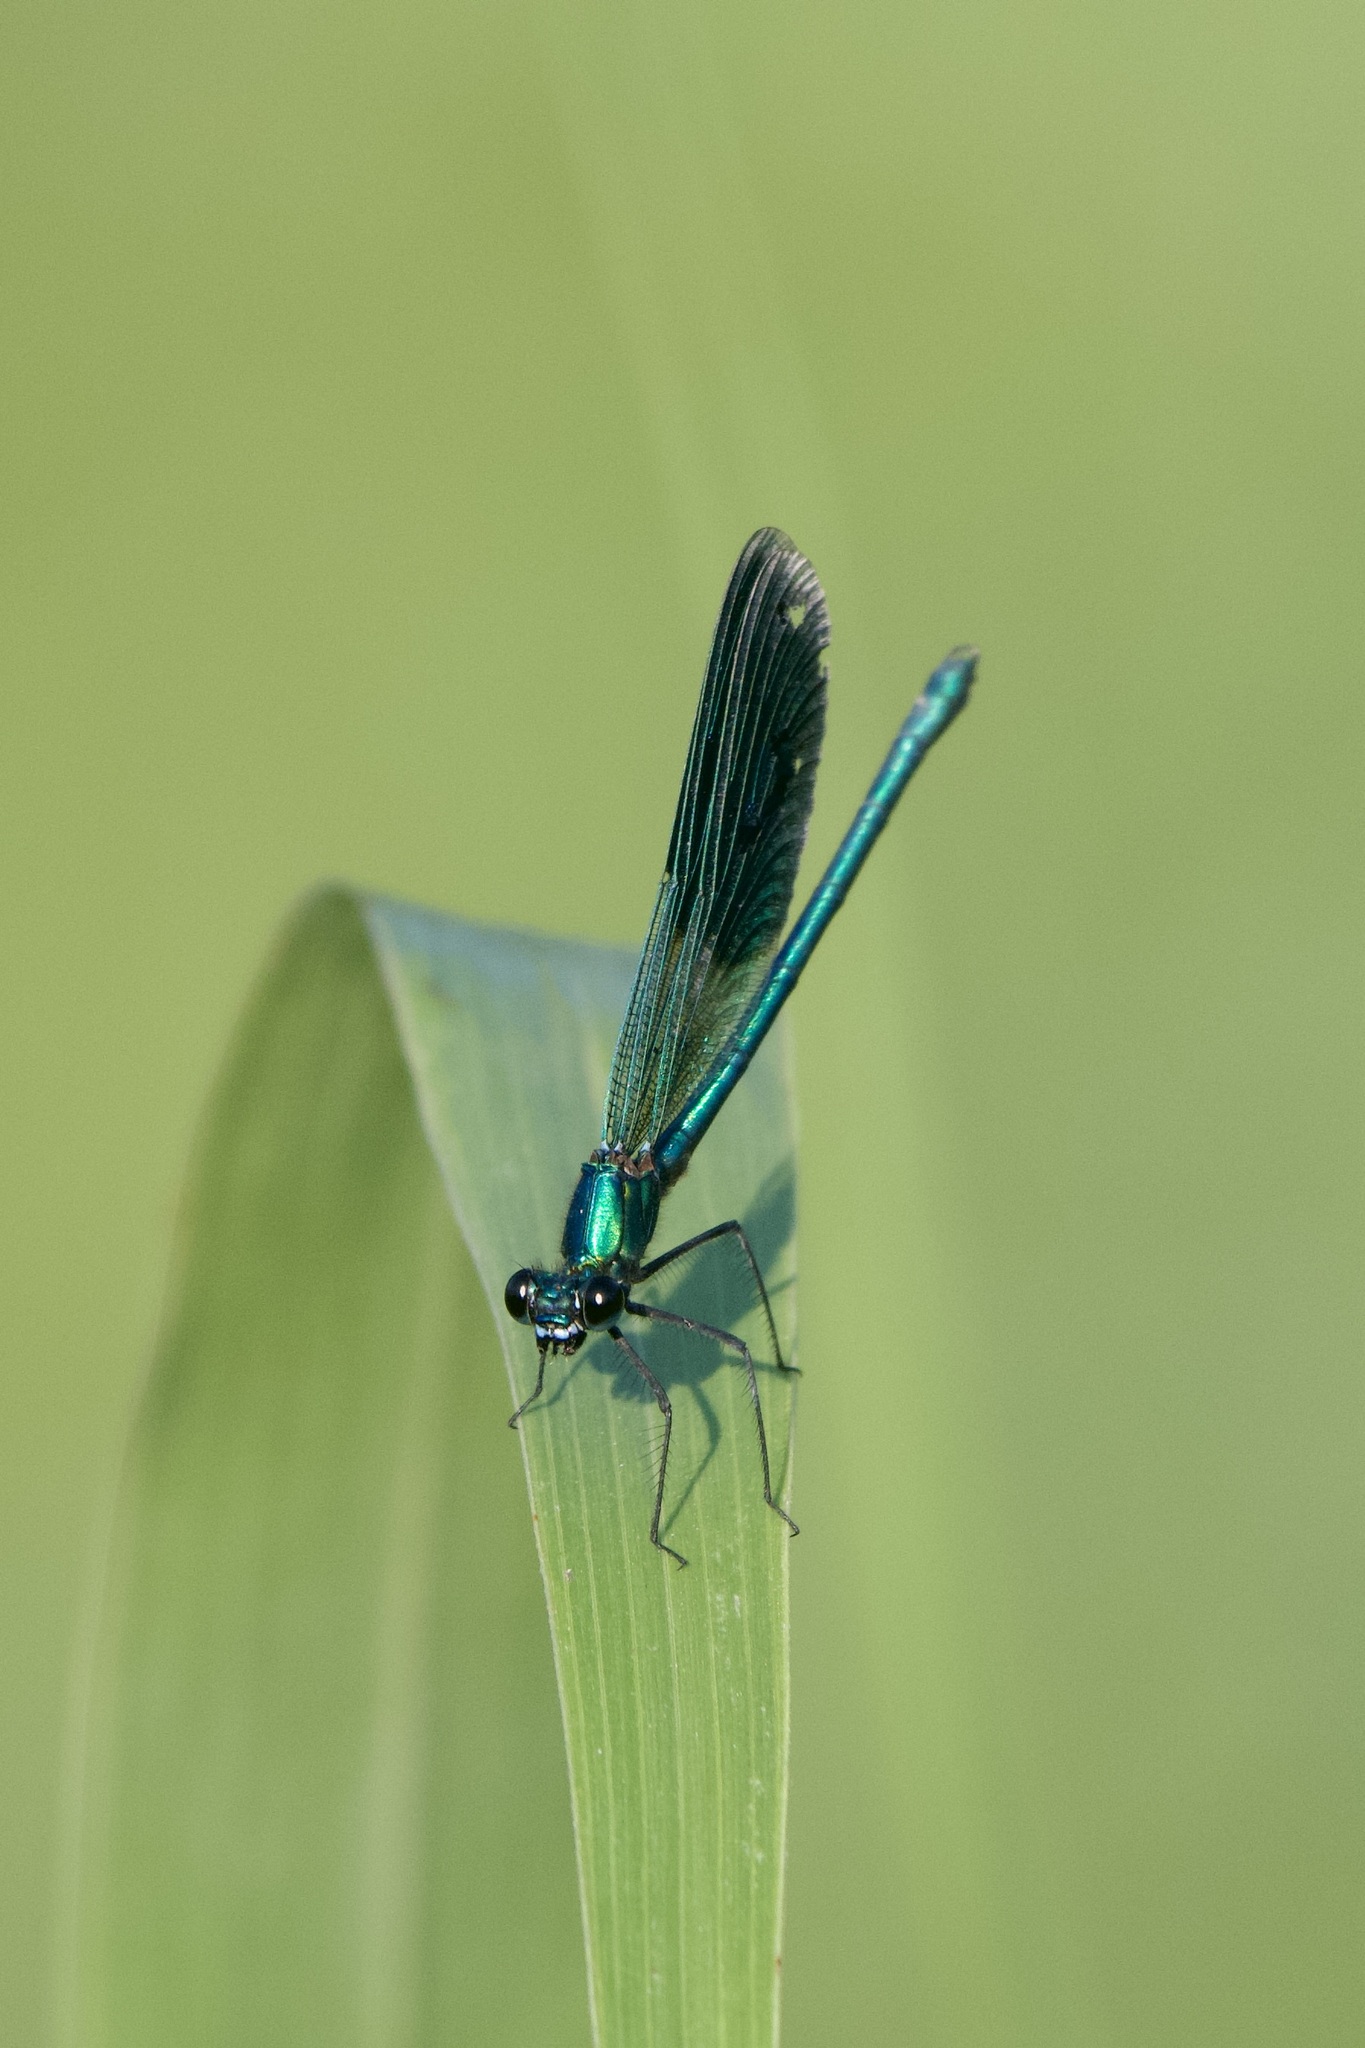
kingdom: Animalia
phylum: Arthropoda
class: Insecta
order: Odonata
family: Calopterygidae
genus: Calopteryx
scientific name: Calopteryx splendens
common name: Banded demoiselle
